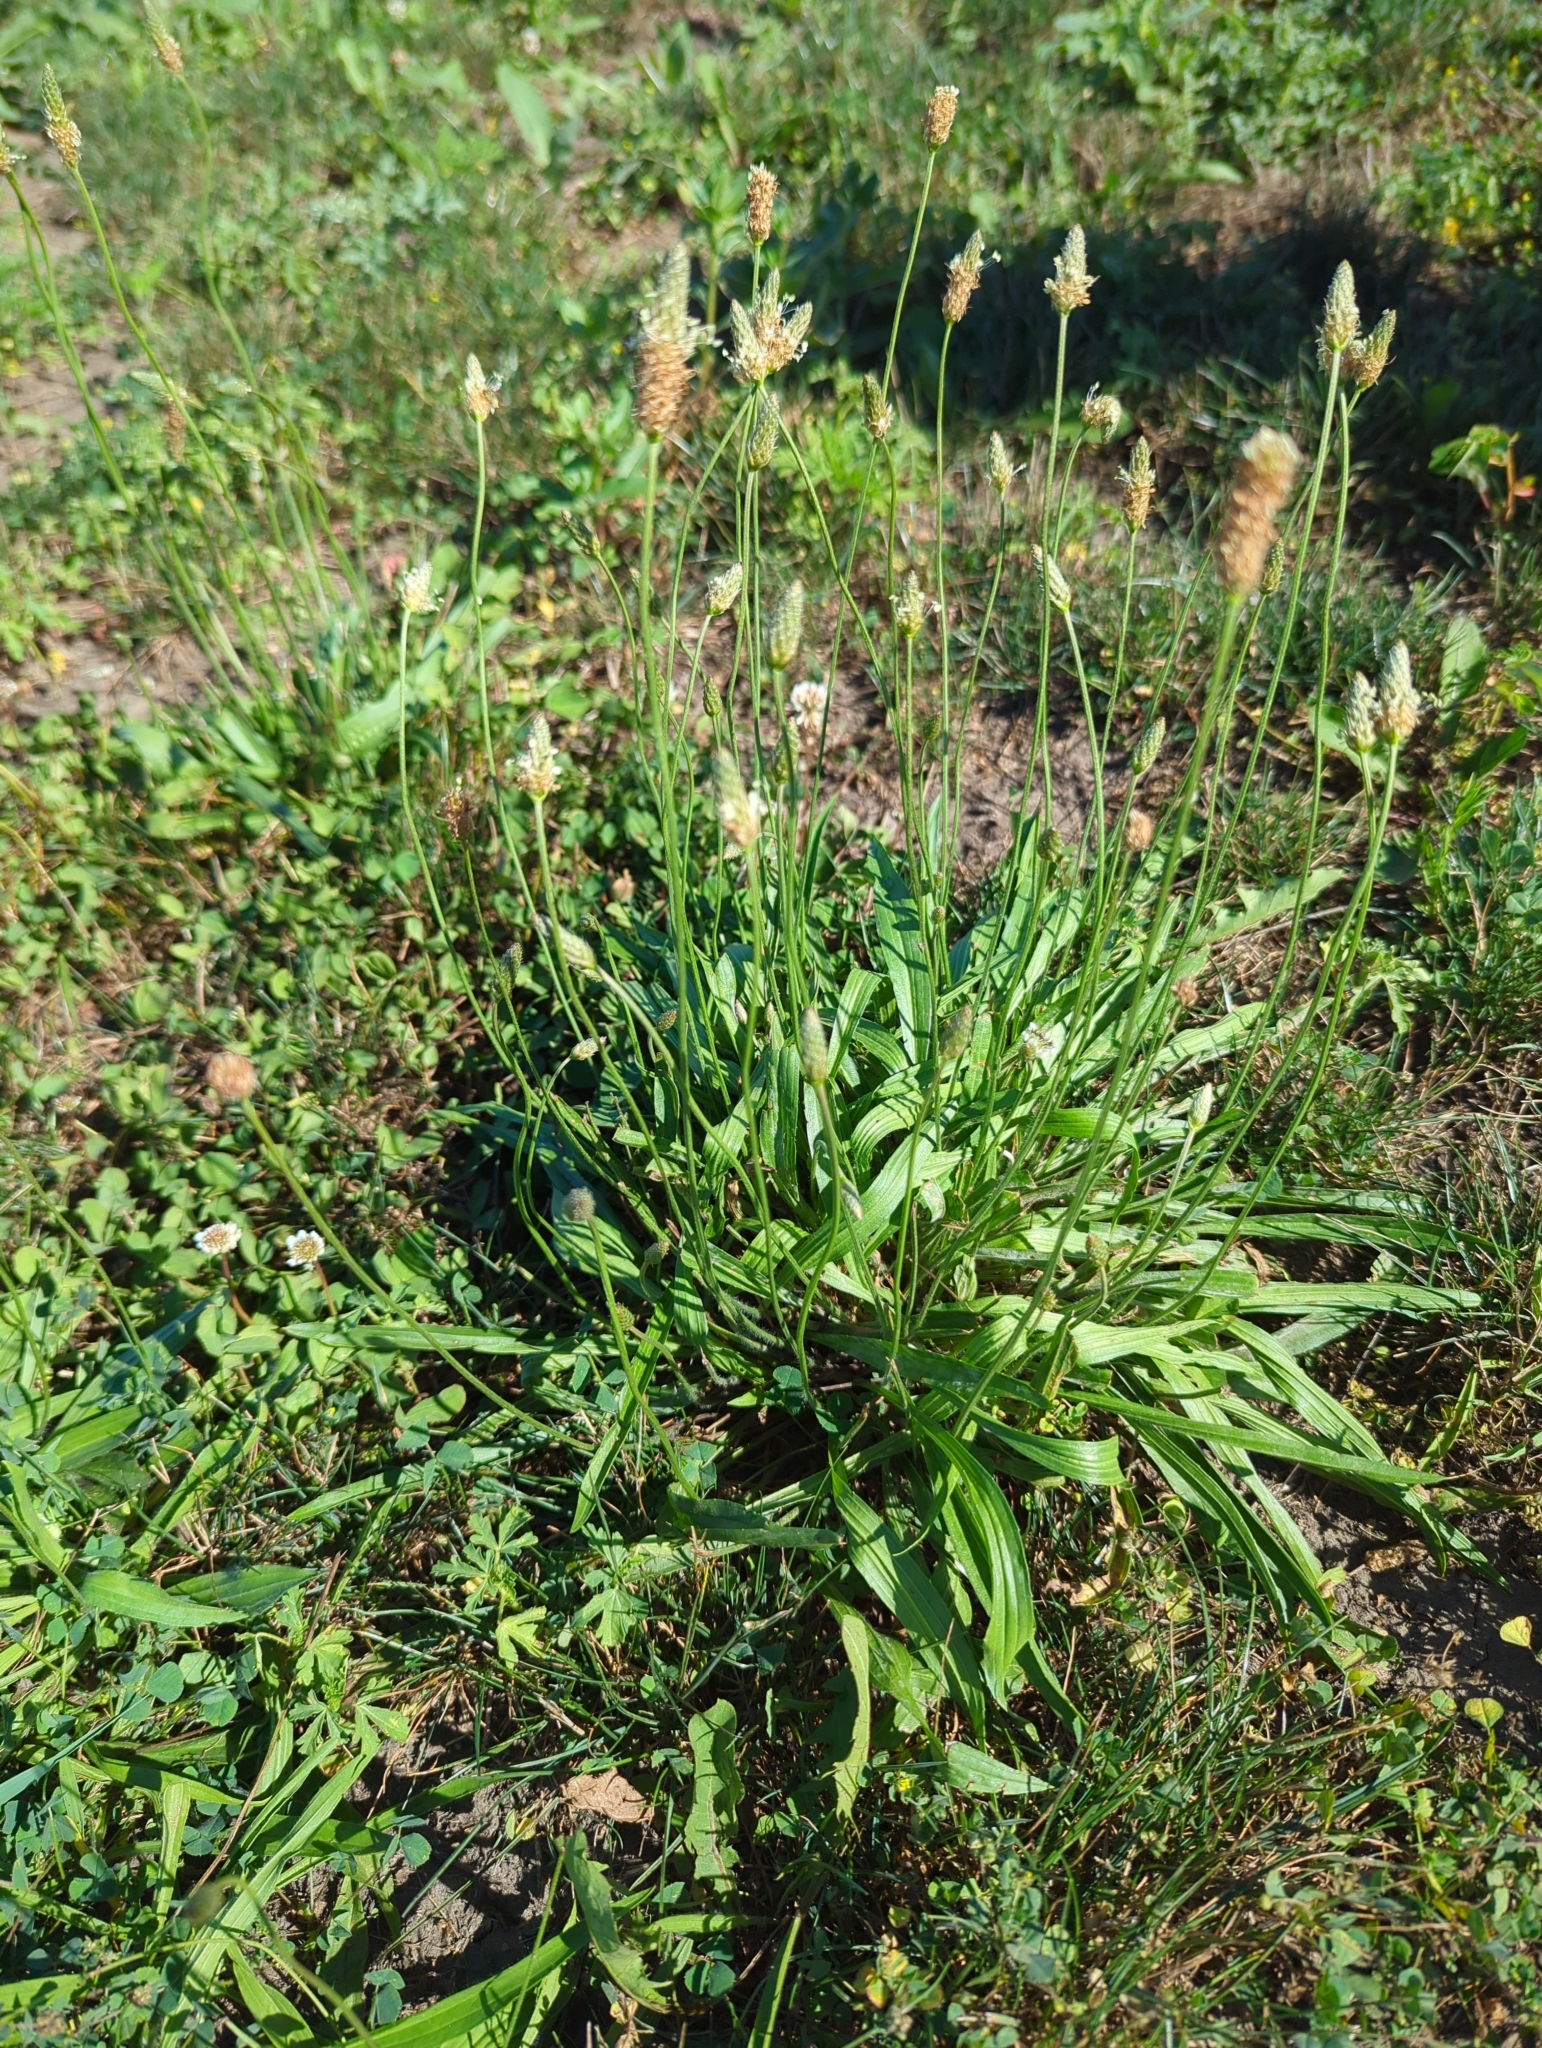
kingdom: Plantae
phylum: Tracheophyta
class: Magnoliopsida
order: Lamiales
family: Plantaginaceae
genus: Plantago
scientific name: Plantago lanceolata
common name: Ribwort plantain
